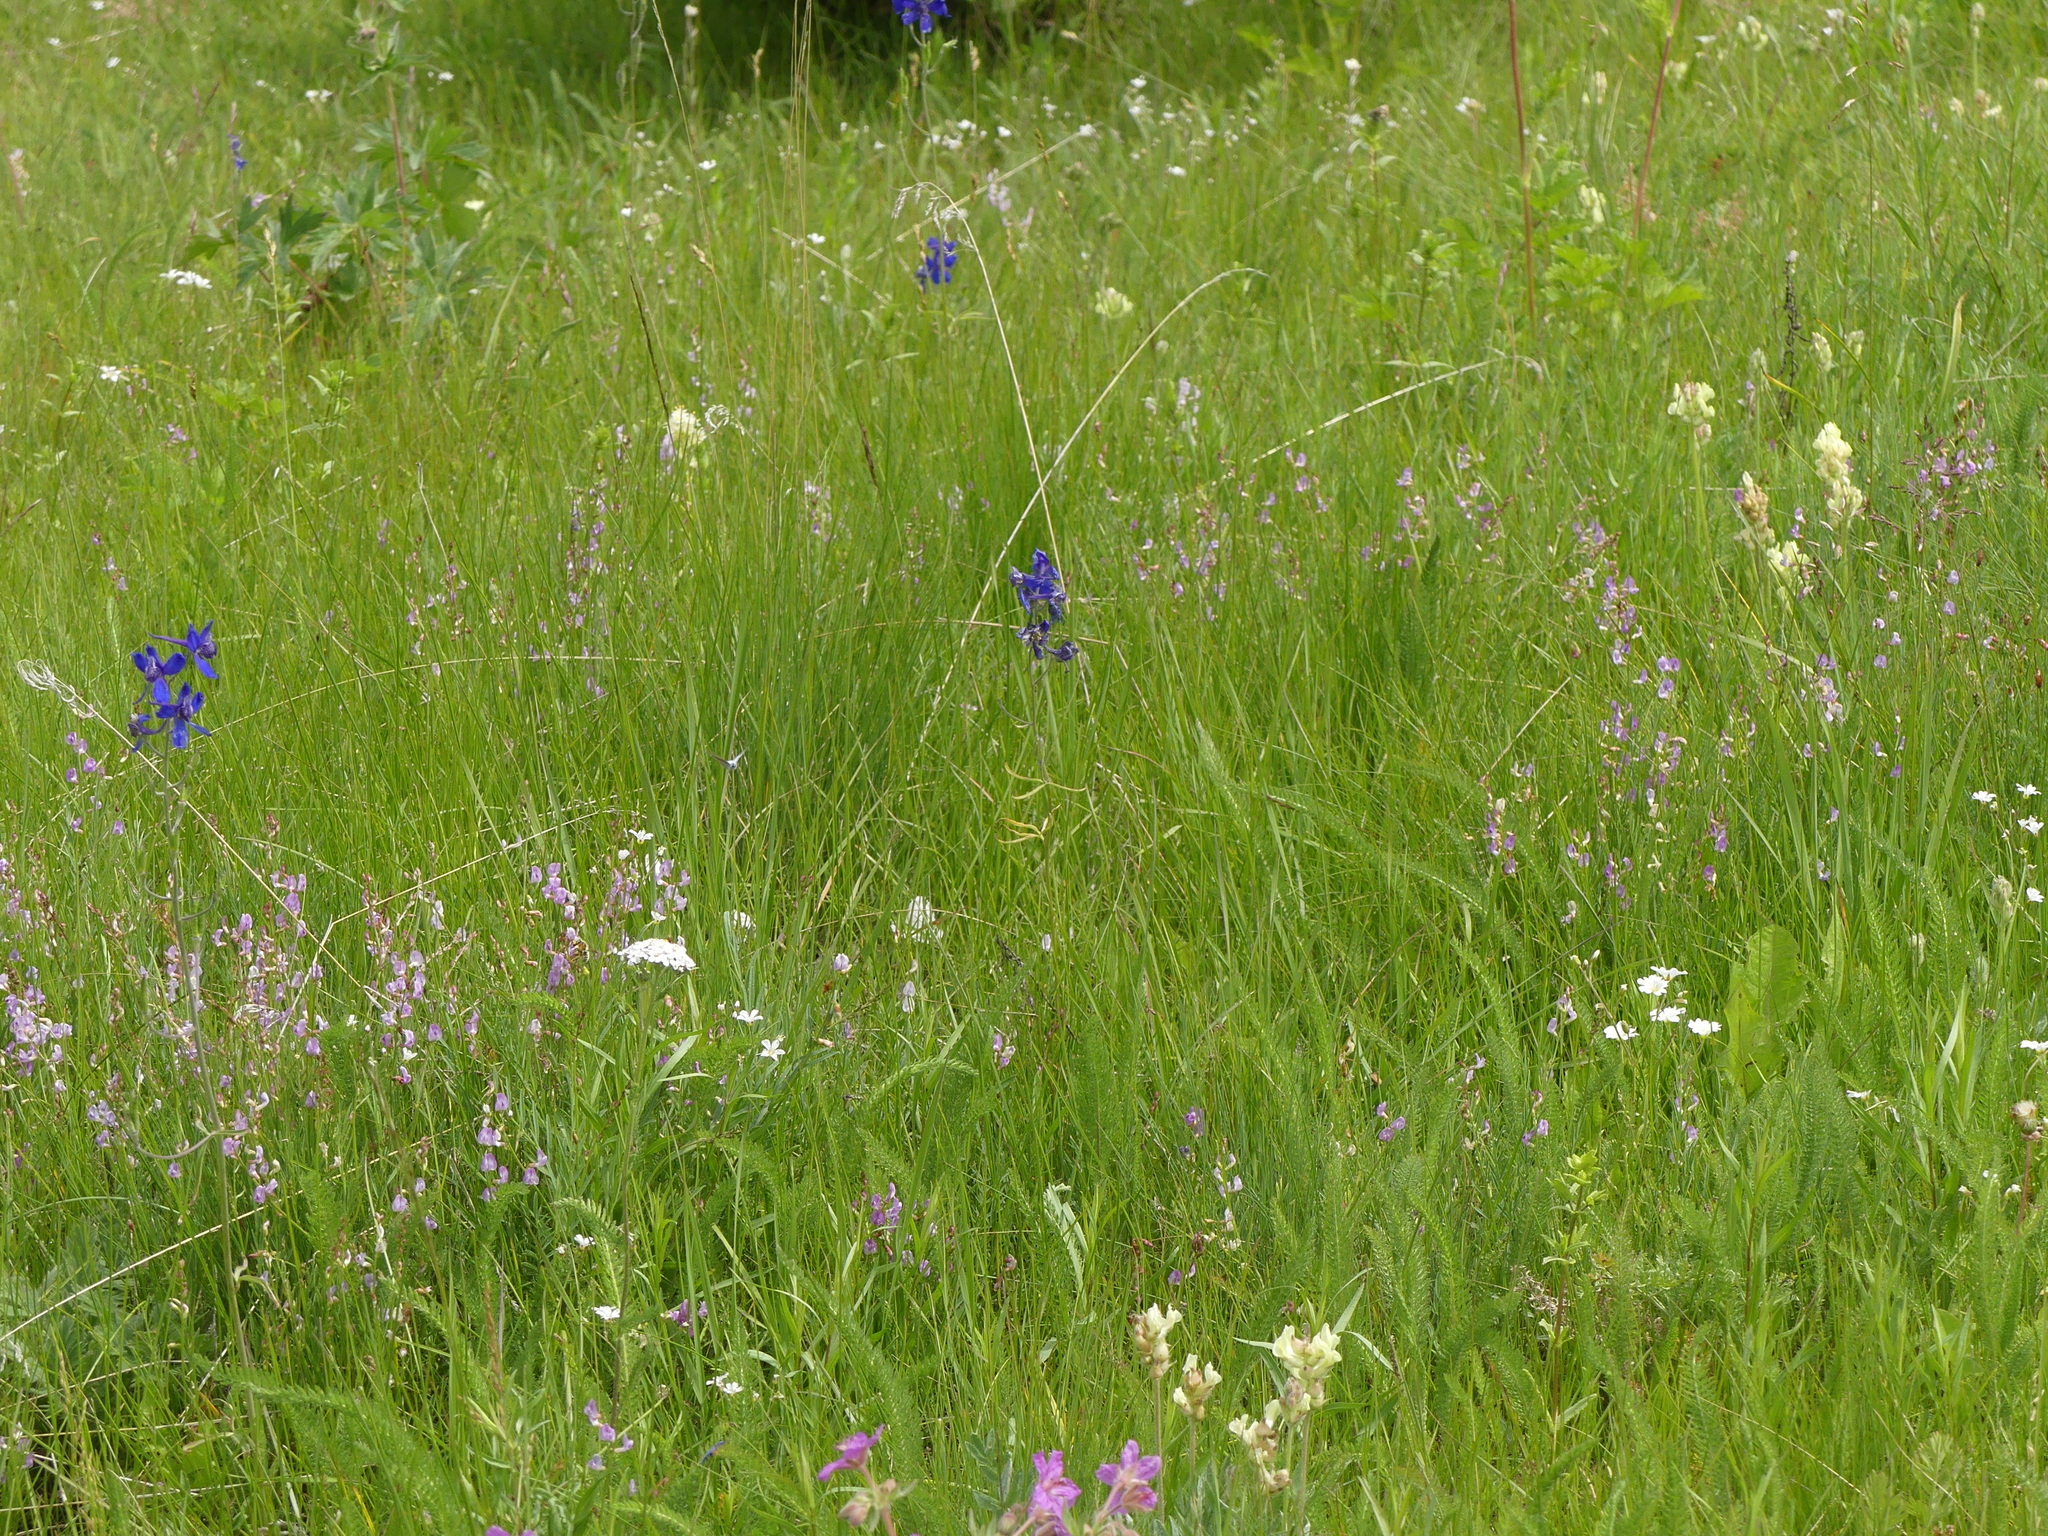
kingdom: Plantae
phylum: Tracheophyta
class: Magnoliopsida
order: Ranunculales
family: Ranunculaceae
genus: Delphinium
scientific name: Delphinium nuttallianum
